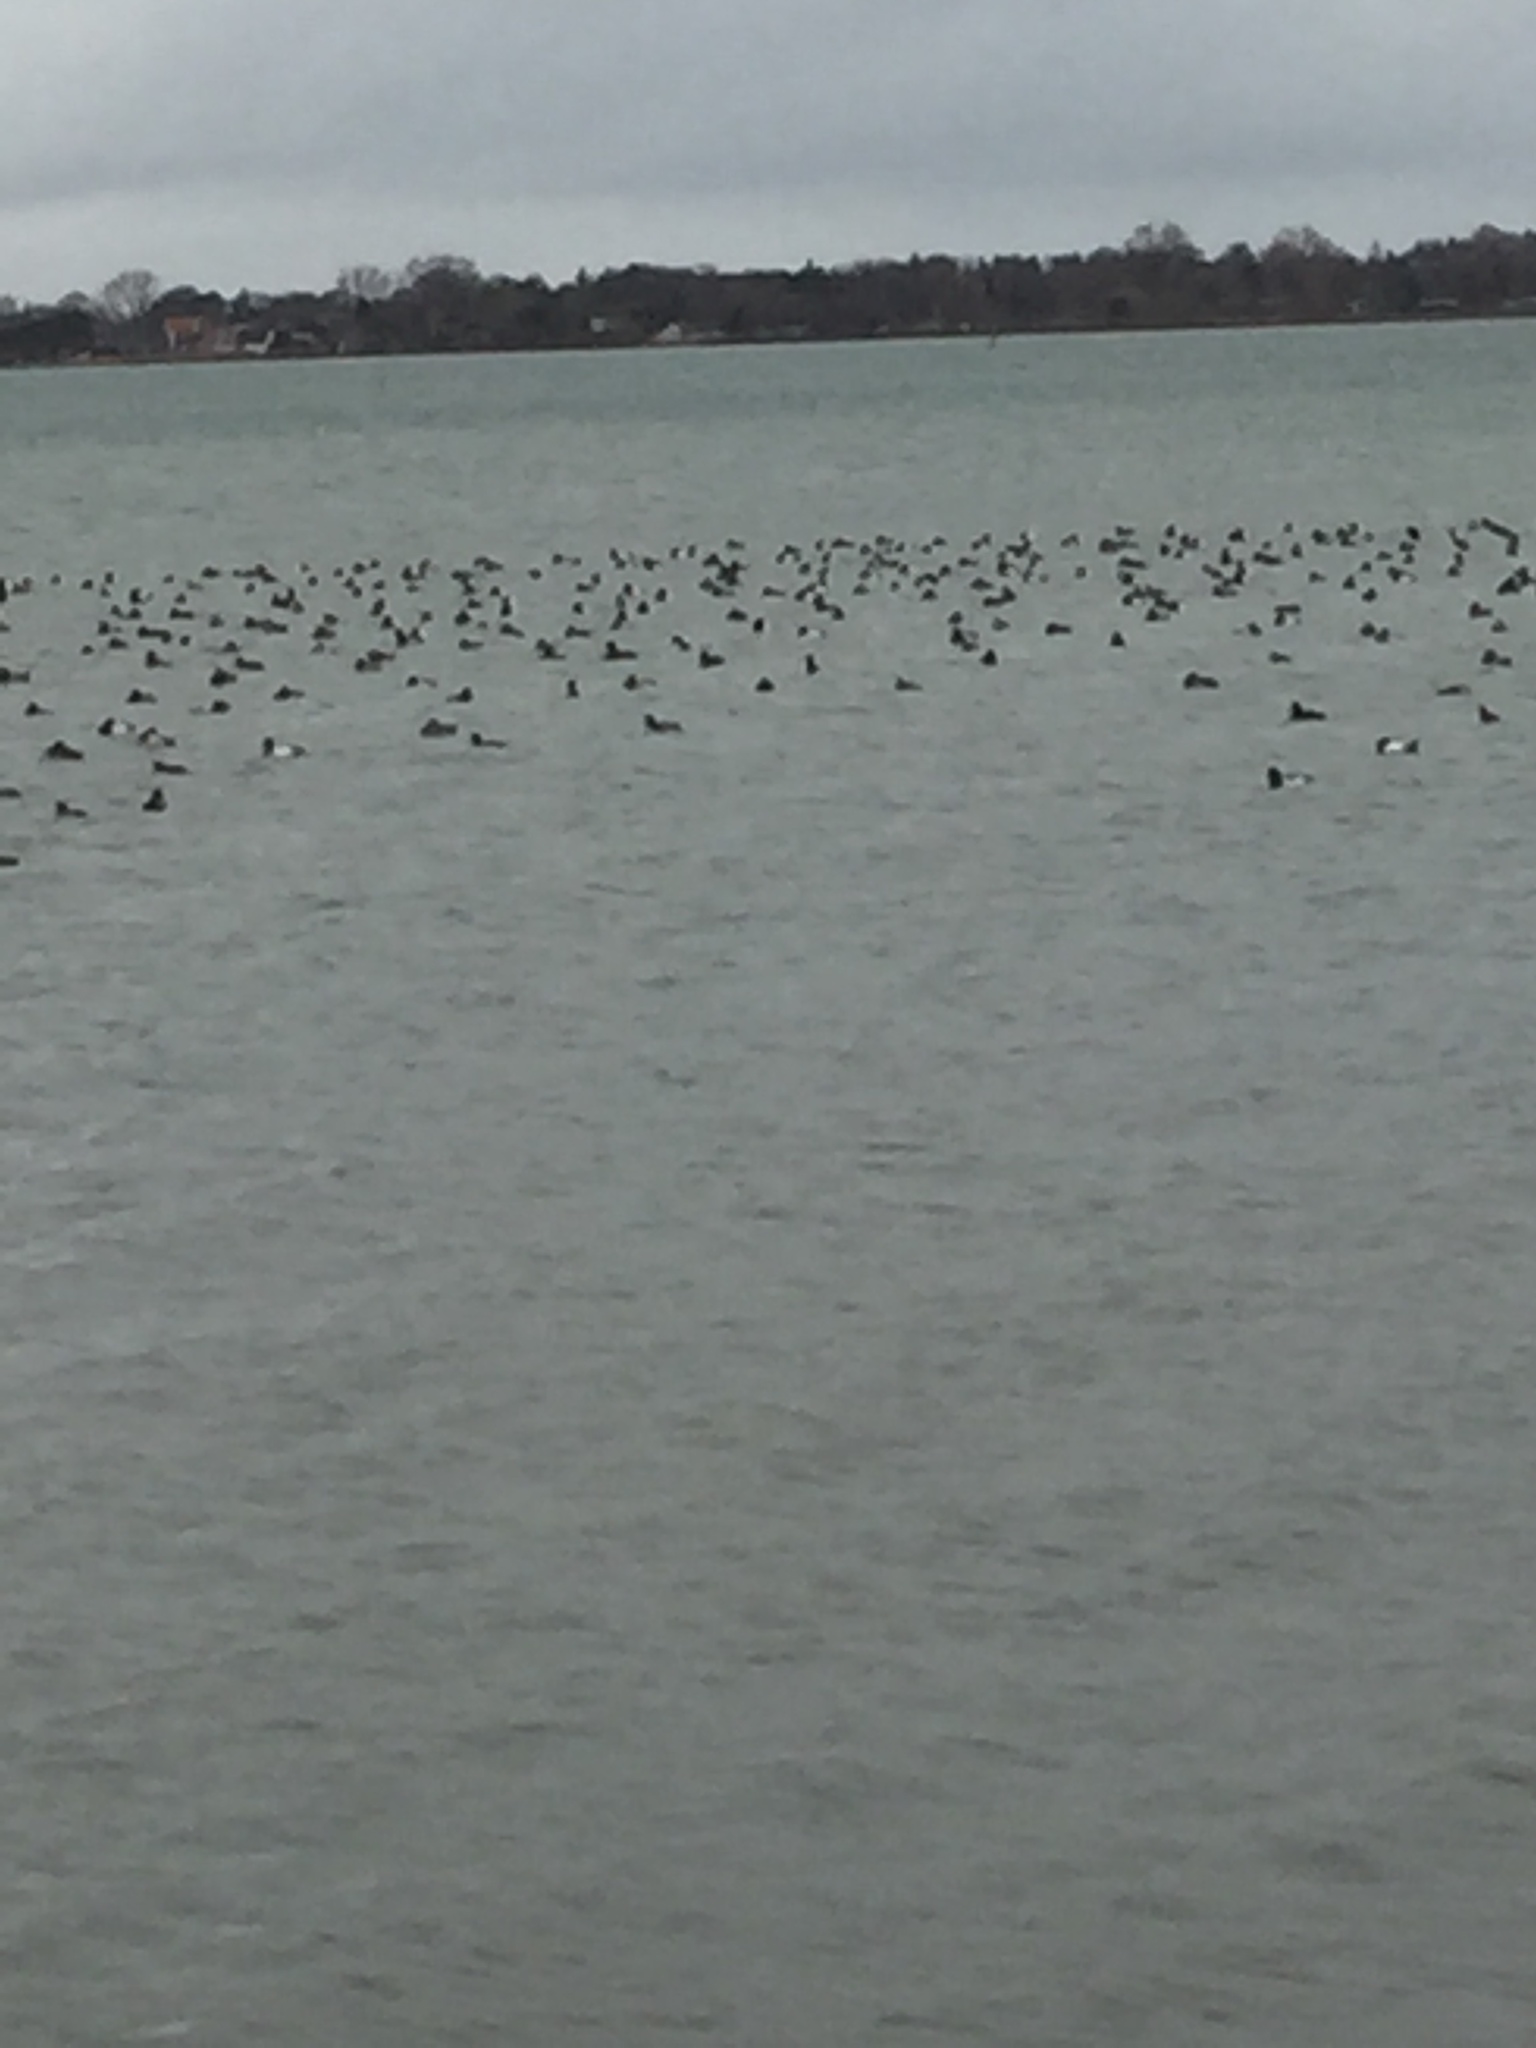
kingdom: Animalia
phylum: Chordata
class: Aves
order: Anseriformes
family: Anatidae
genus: Aythya
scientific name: Aythya fuligula
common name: Tufted duck
